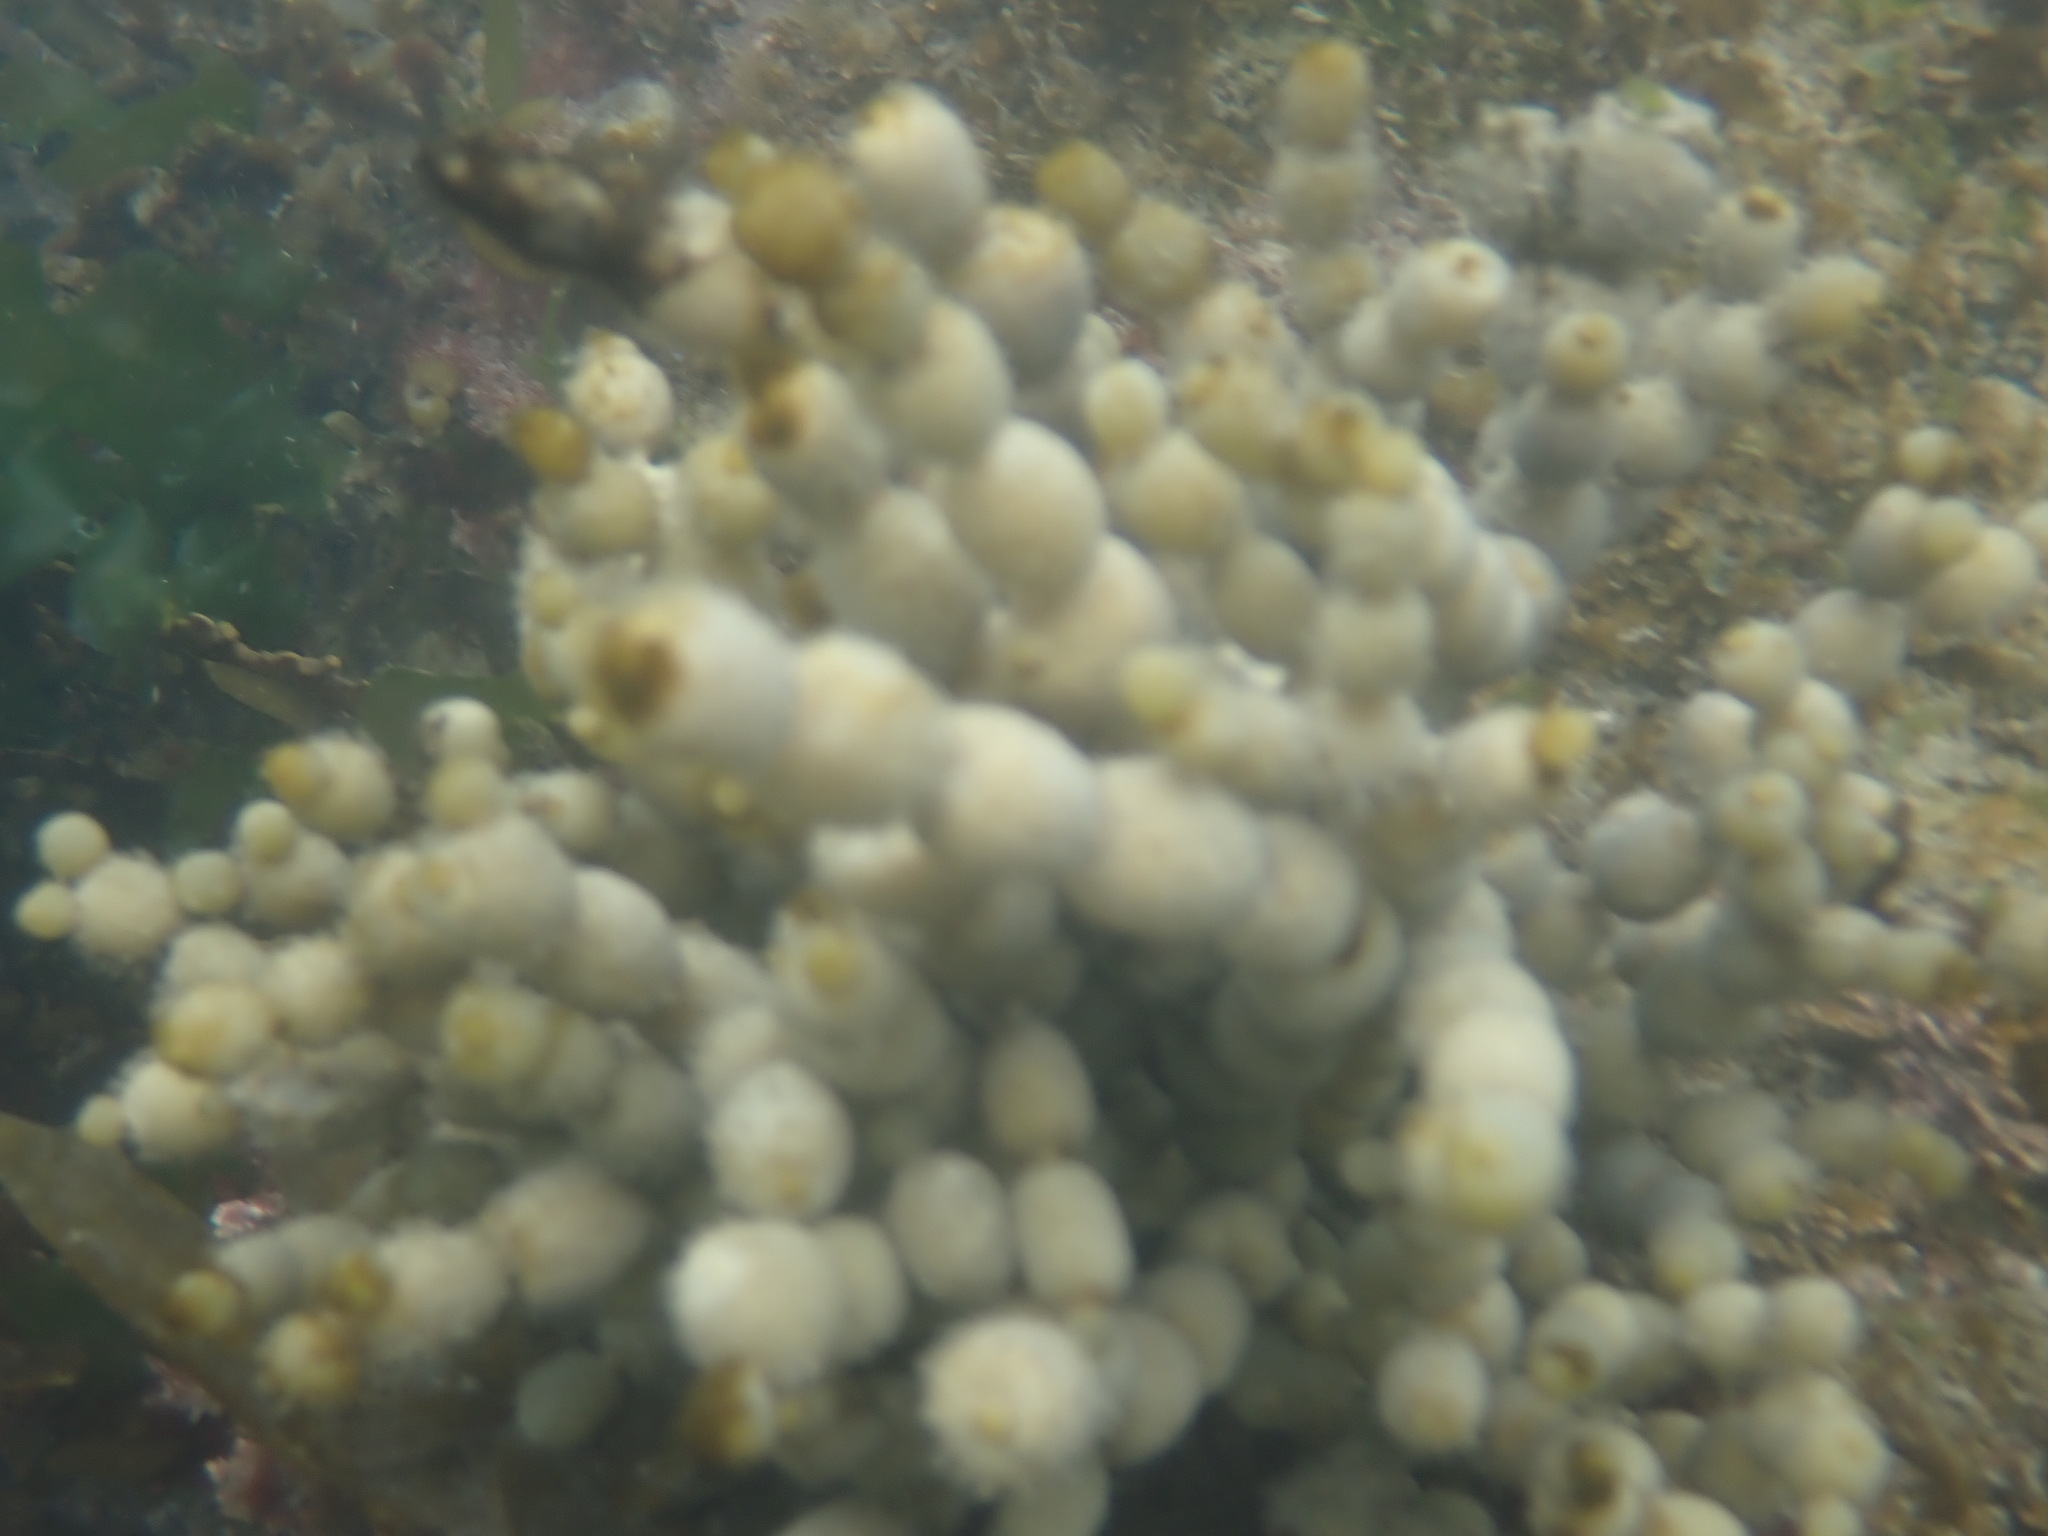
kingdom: Chromista
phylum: Ochrophyta
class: Phaeophyceae
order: Fucales
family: Hormosiraceae
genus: Hormosira
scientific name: Hormosira banksii
